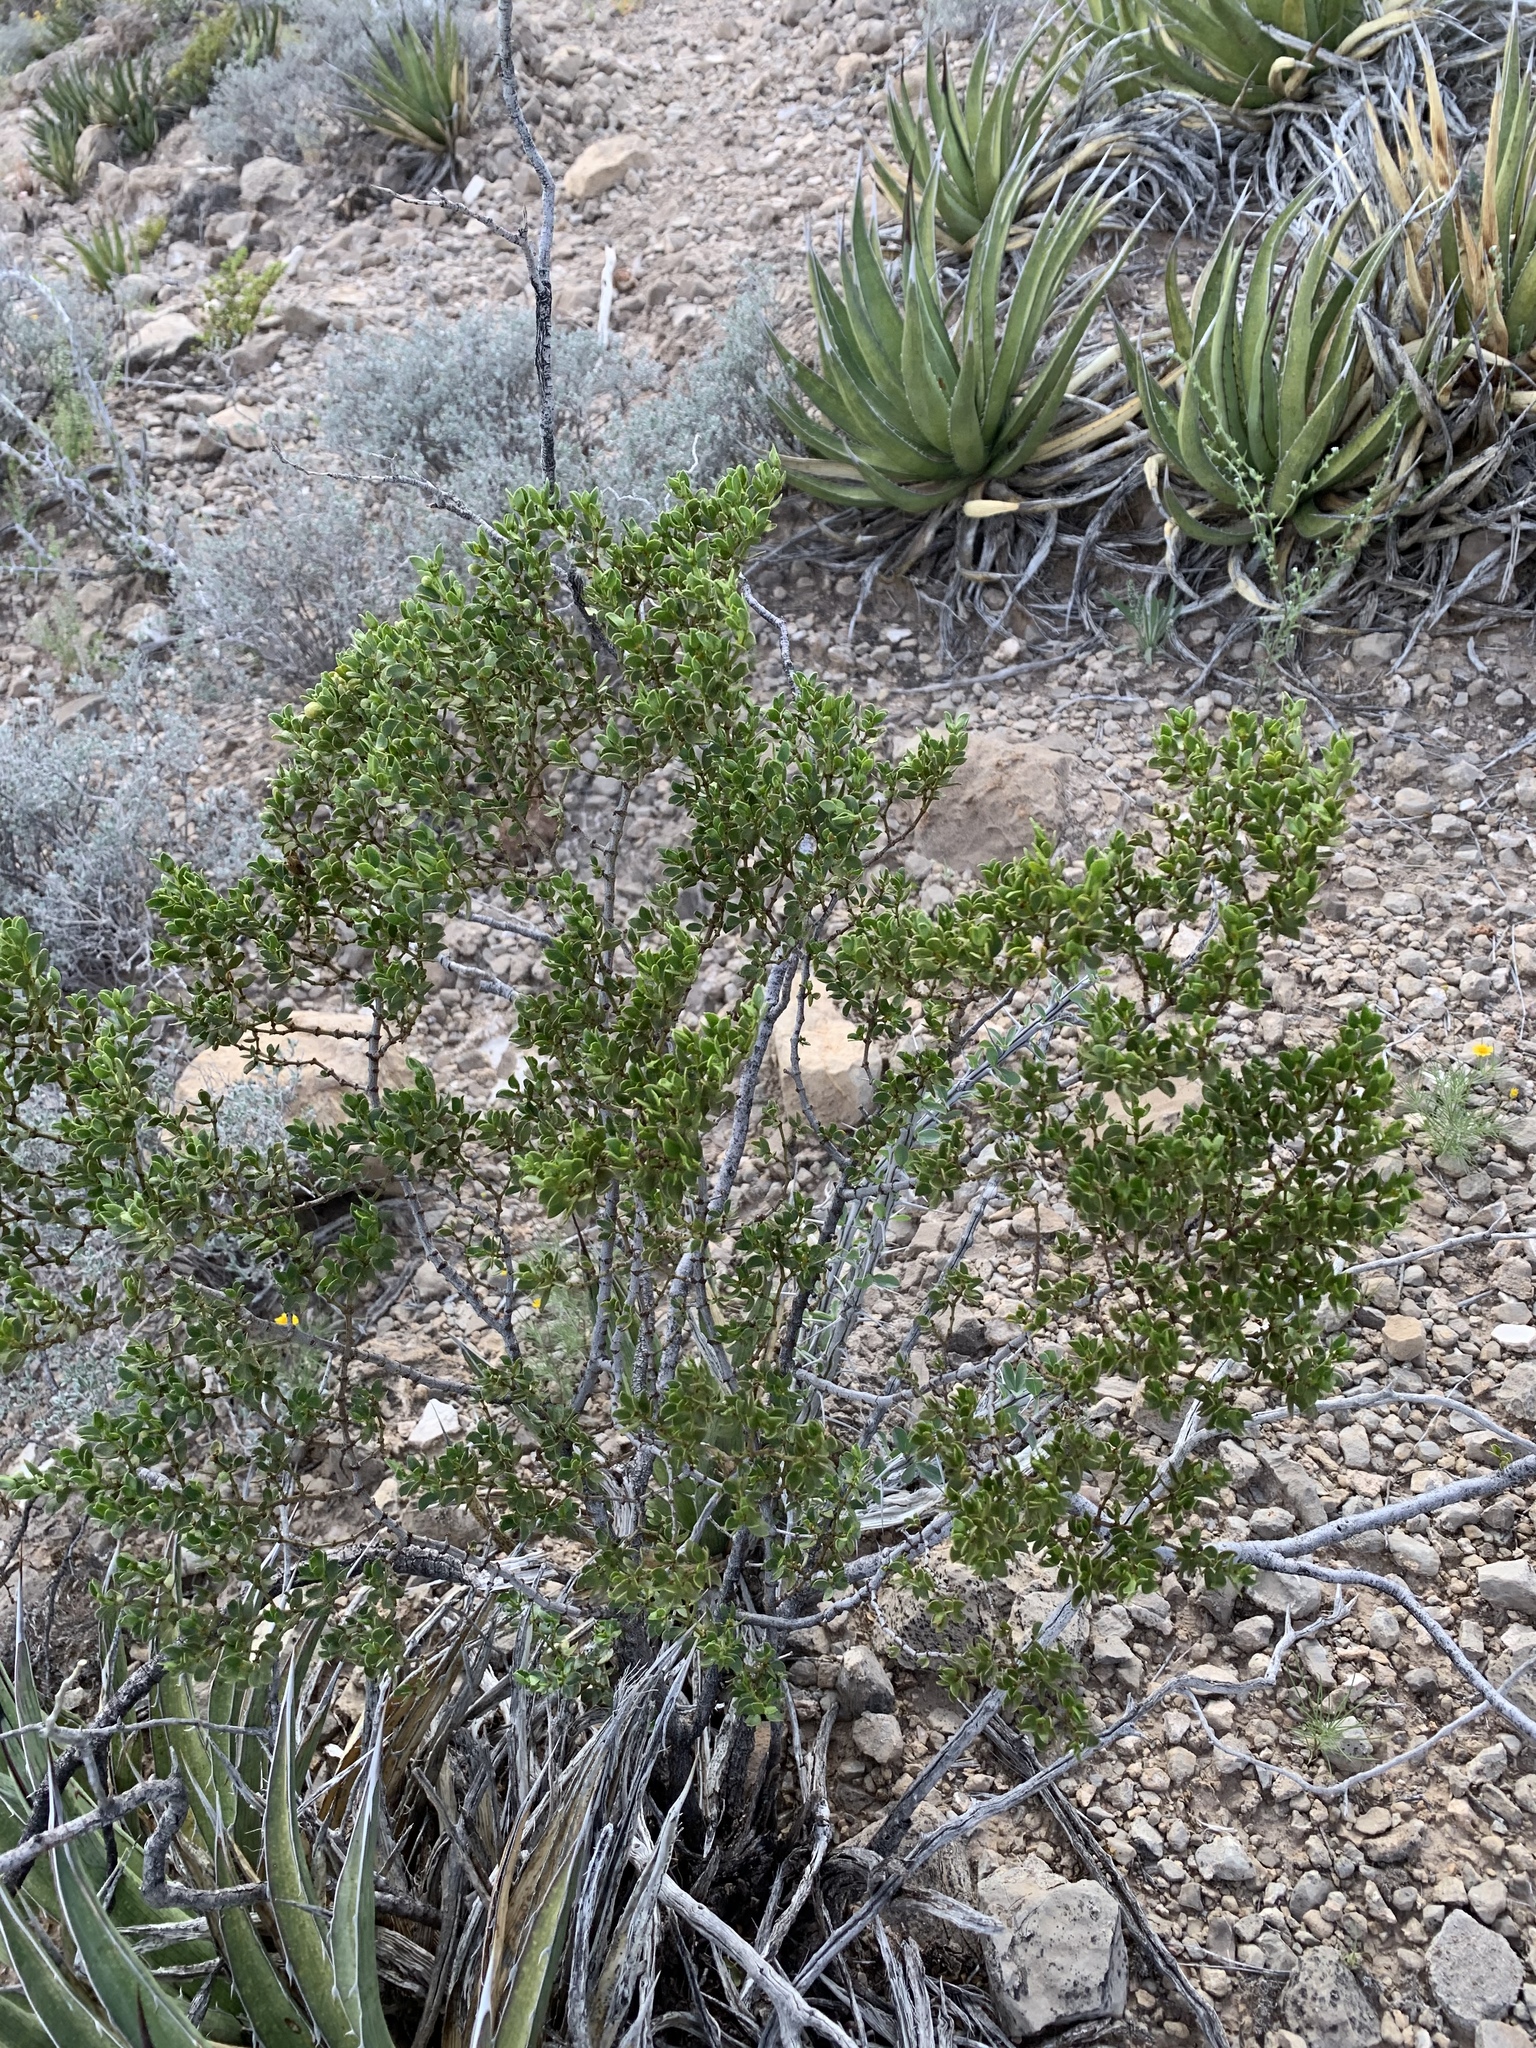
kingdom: Plantae
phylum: Tracheophyta
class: Magnoliopsida
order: Zygophyllales
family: Zygophyllaceae
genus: Larrea
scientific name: Larrea tridentata
